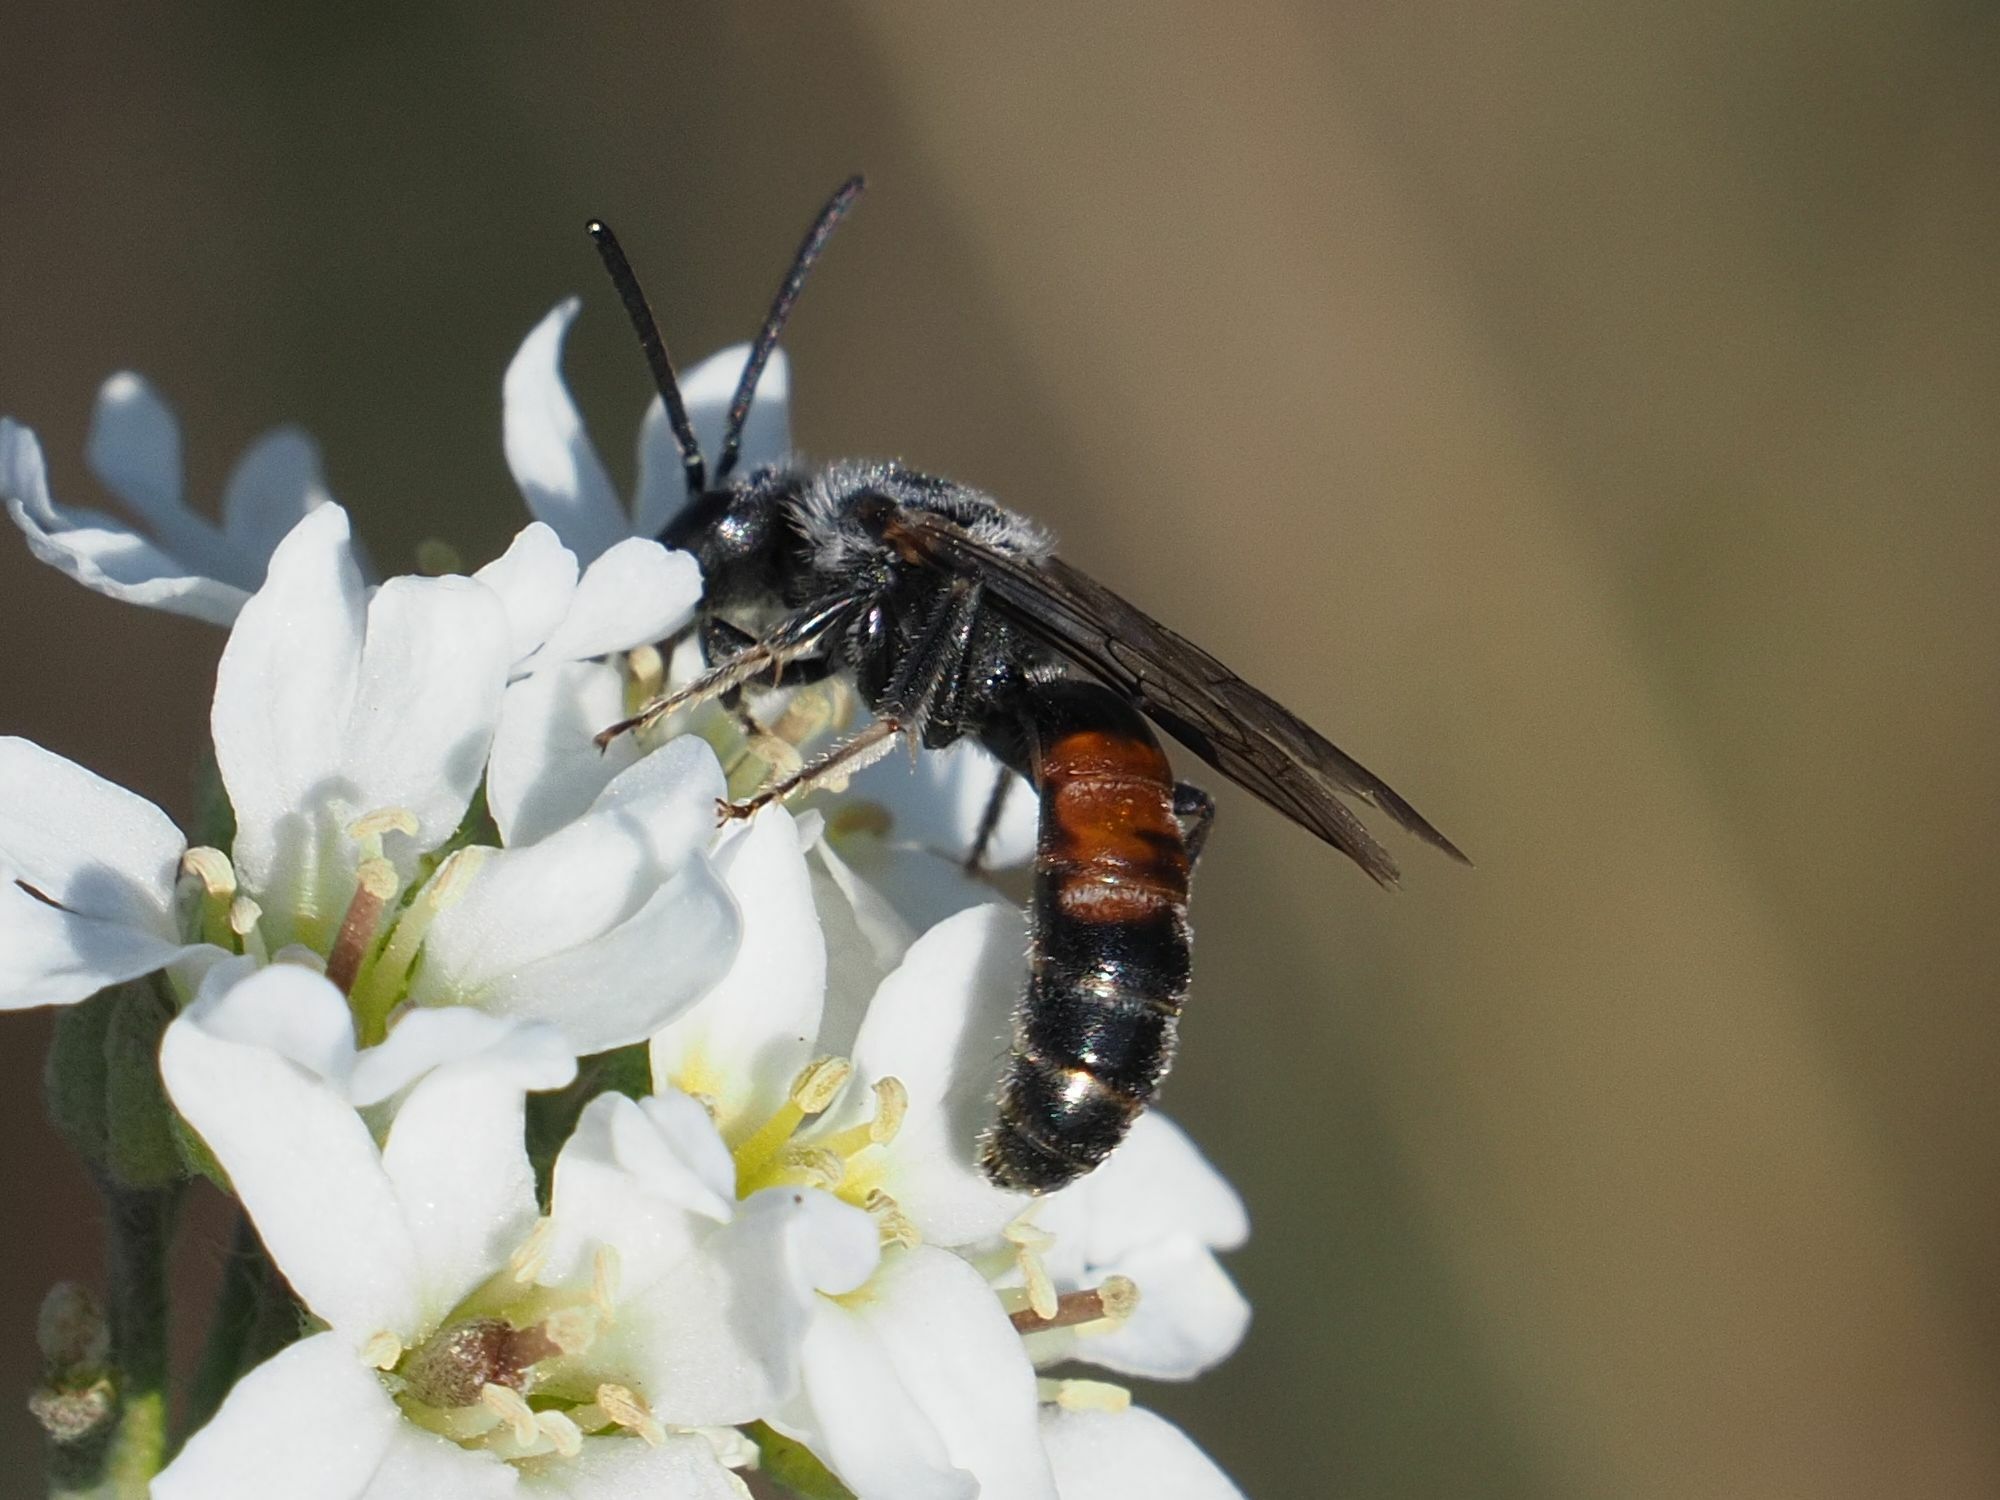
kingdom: Animalia
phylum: Arthropoda
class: Insecta
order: Hymenoptera
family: Halictidae
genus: Lasioglossum
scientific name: Lasioglossum nigripes
